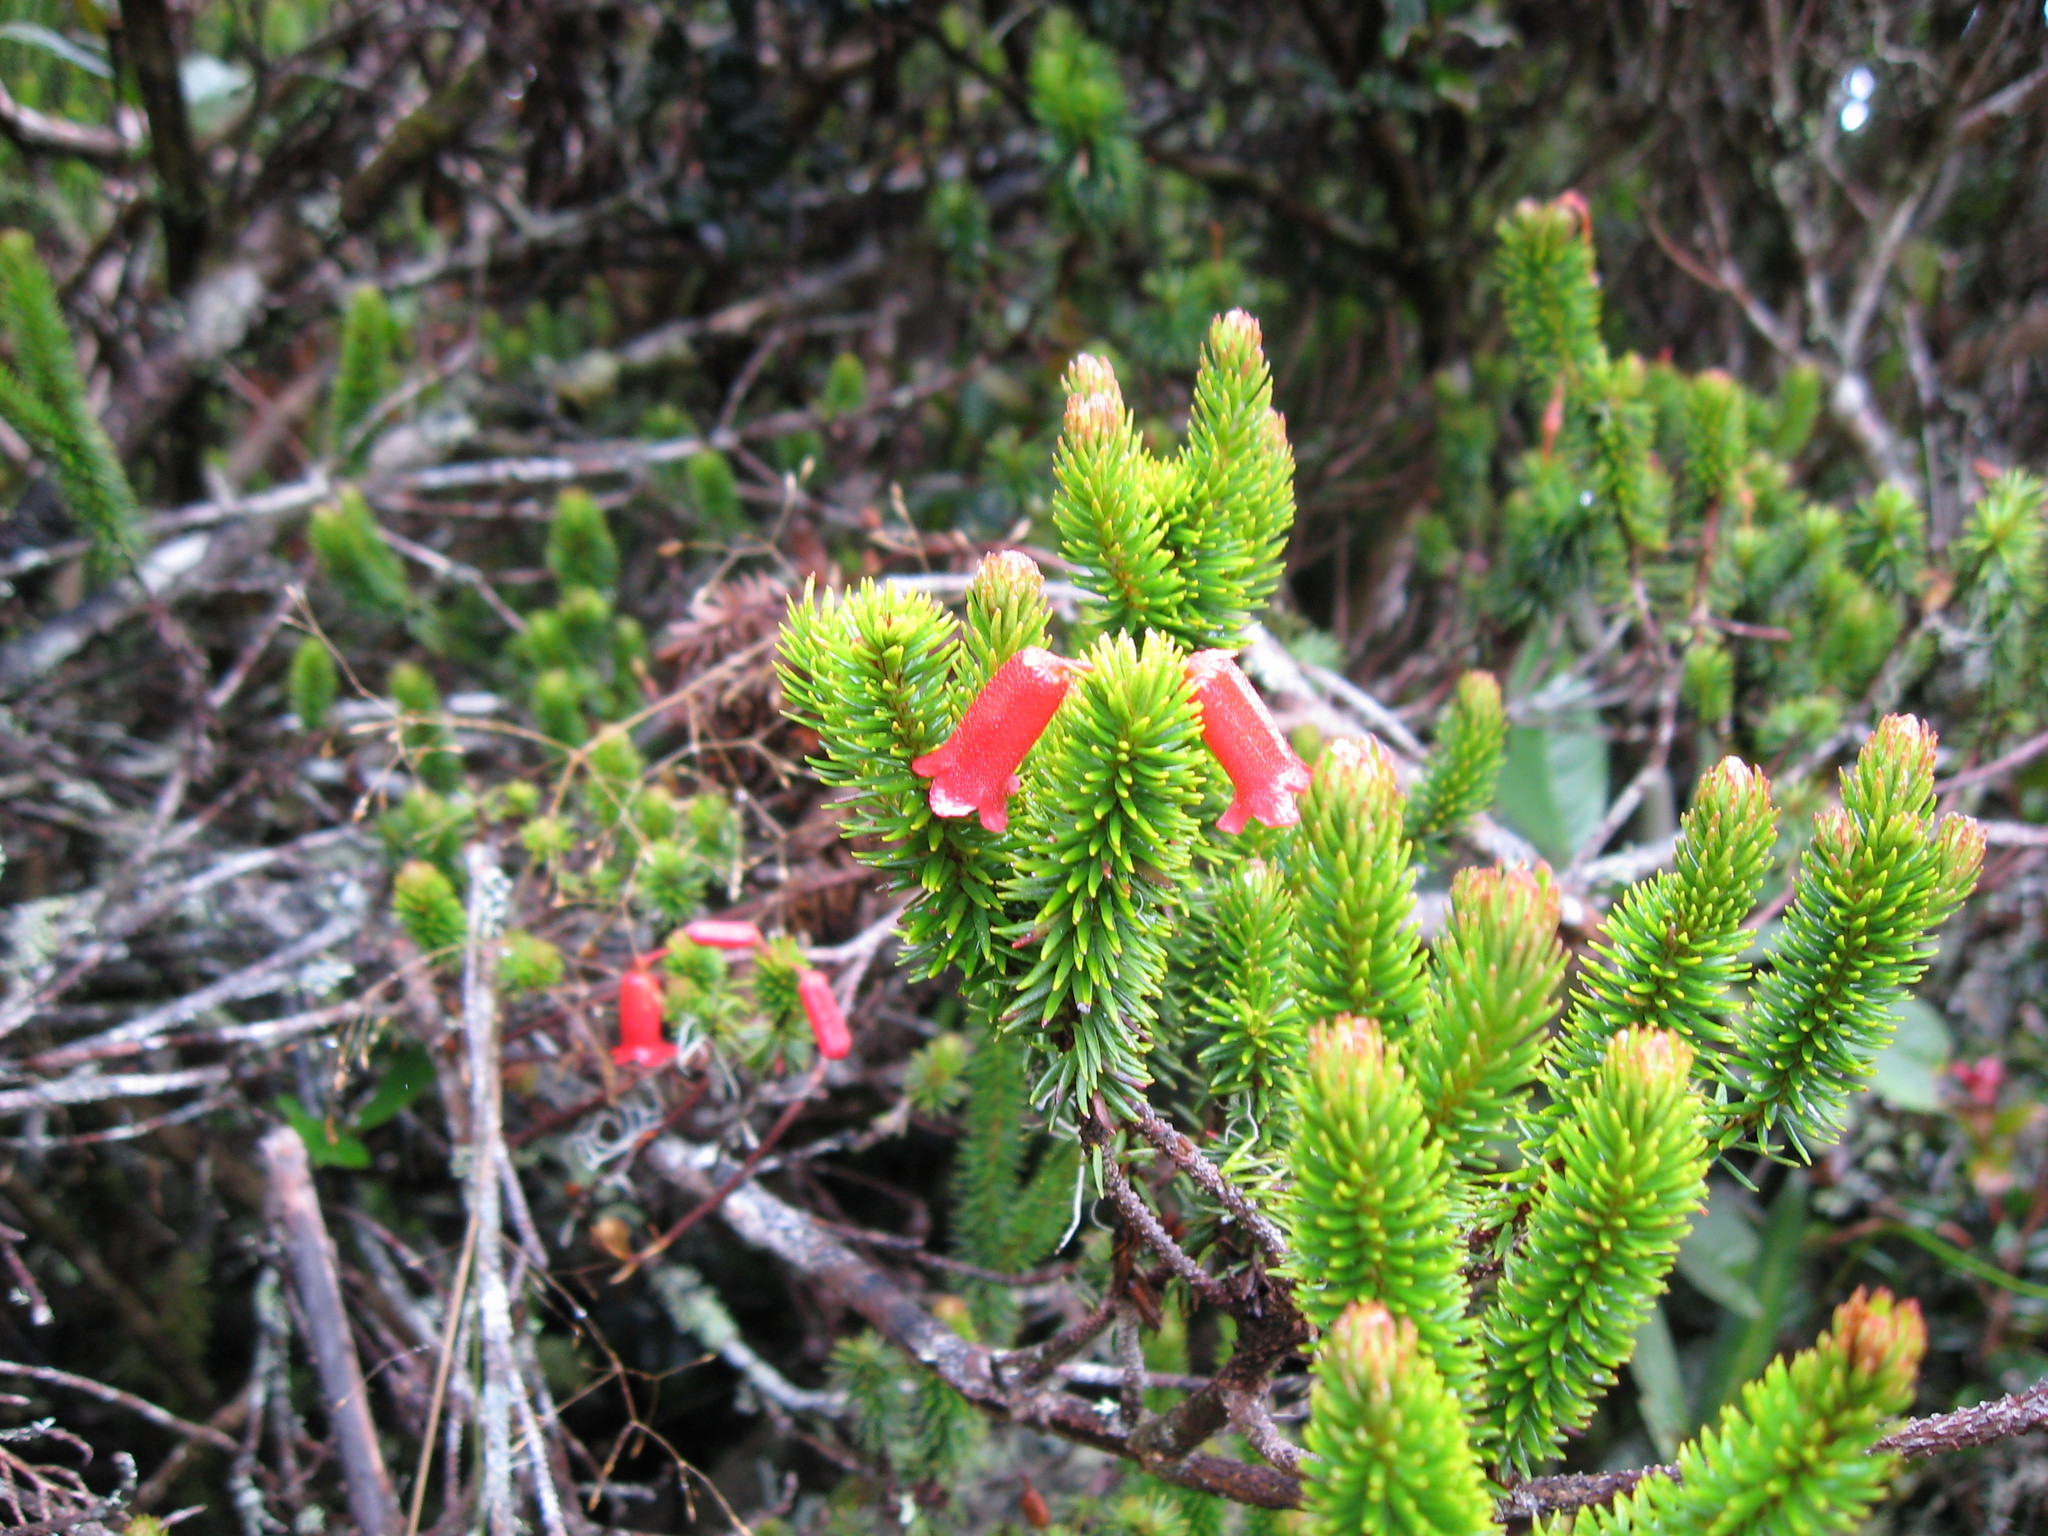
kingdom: Plantae
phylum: Tracheophyta
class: Magnoliopsida
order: Ericales
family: Ericaceae
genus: Rhododendron
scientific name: Rhododendron ericoides
